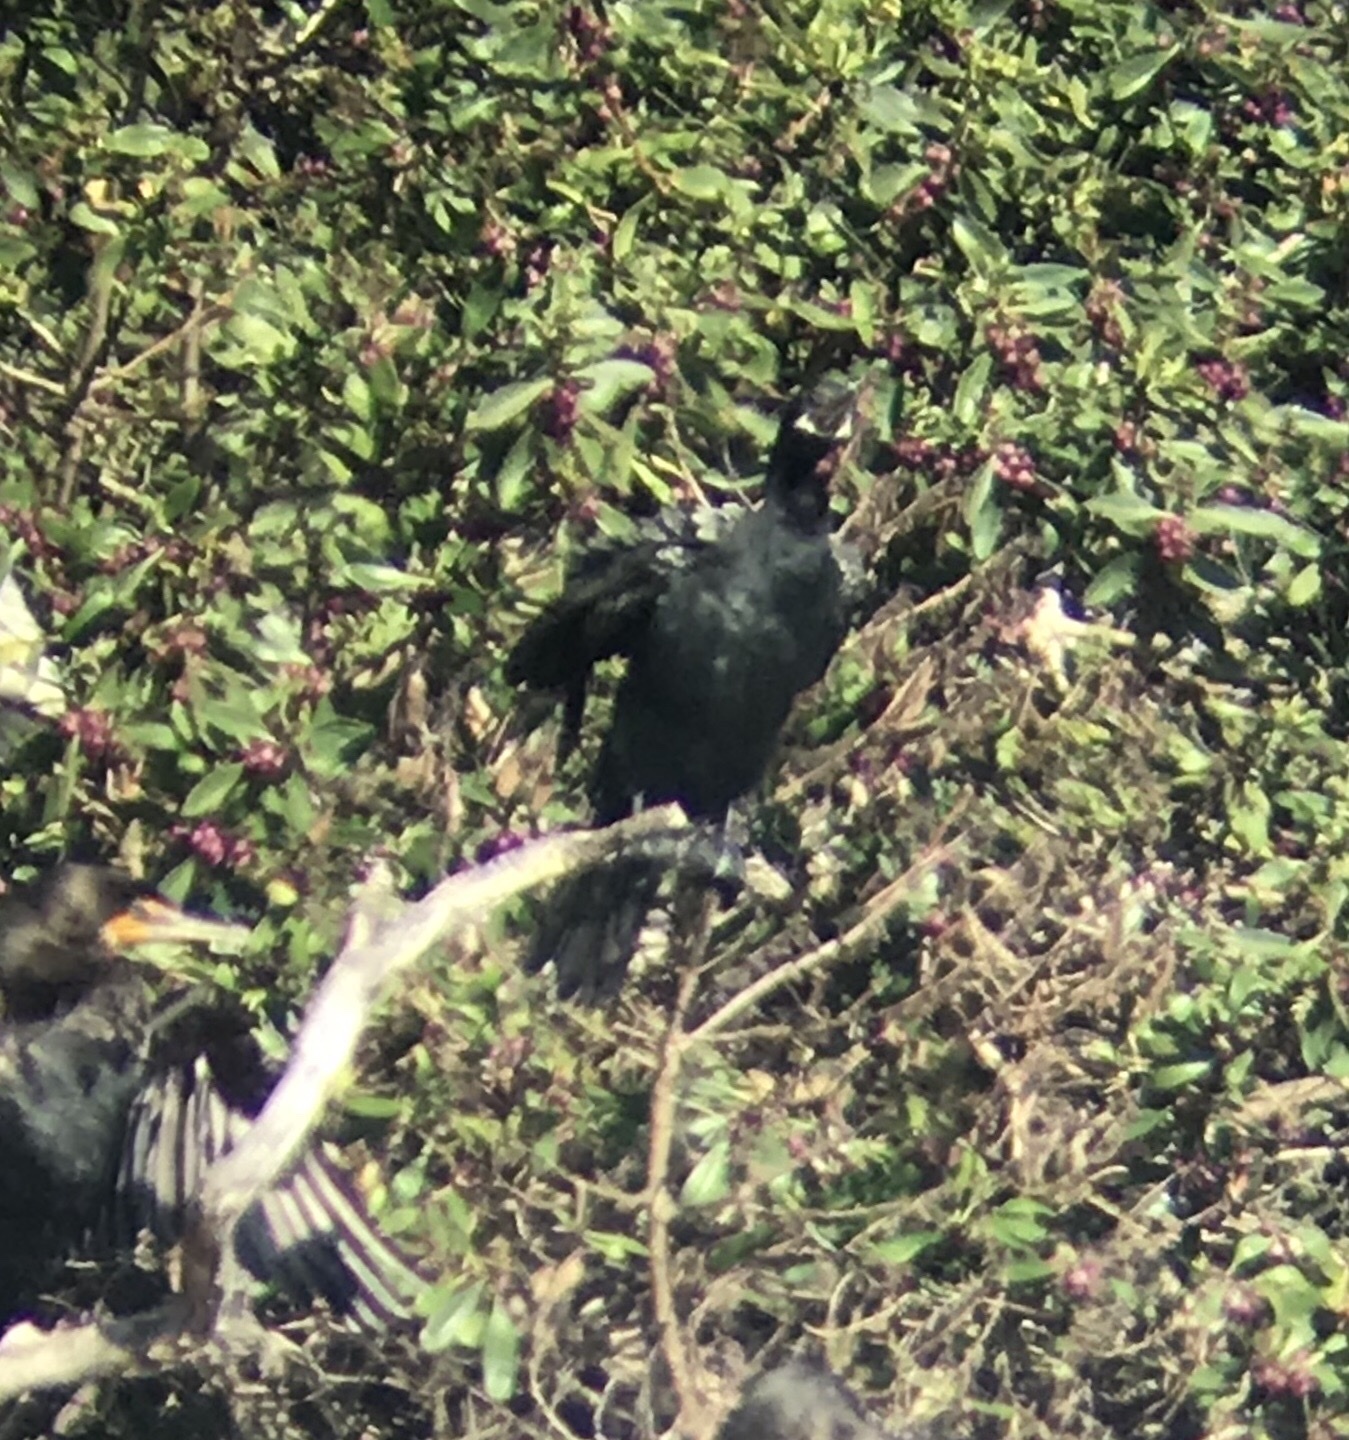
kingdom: Animalia
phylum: Chordata
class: Aves
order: Suliformes
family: Phalacrocoracidae
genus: Phalacrocorax
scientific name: Phalacrocorax brasilianus
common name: Neotropic cormorant
